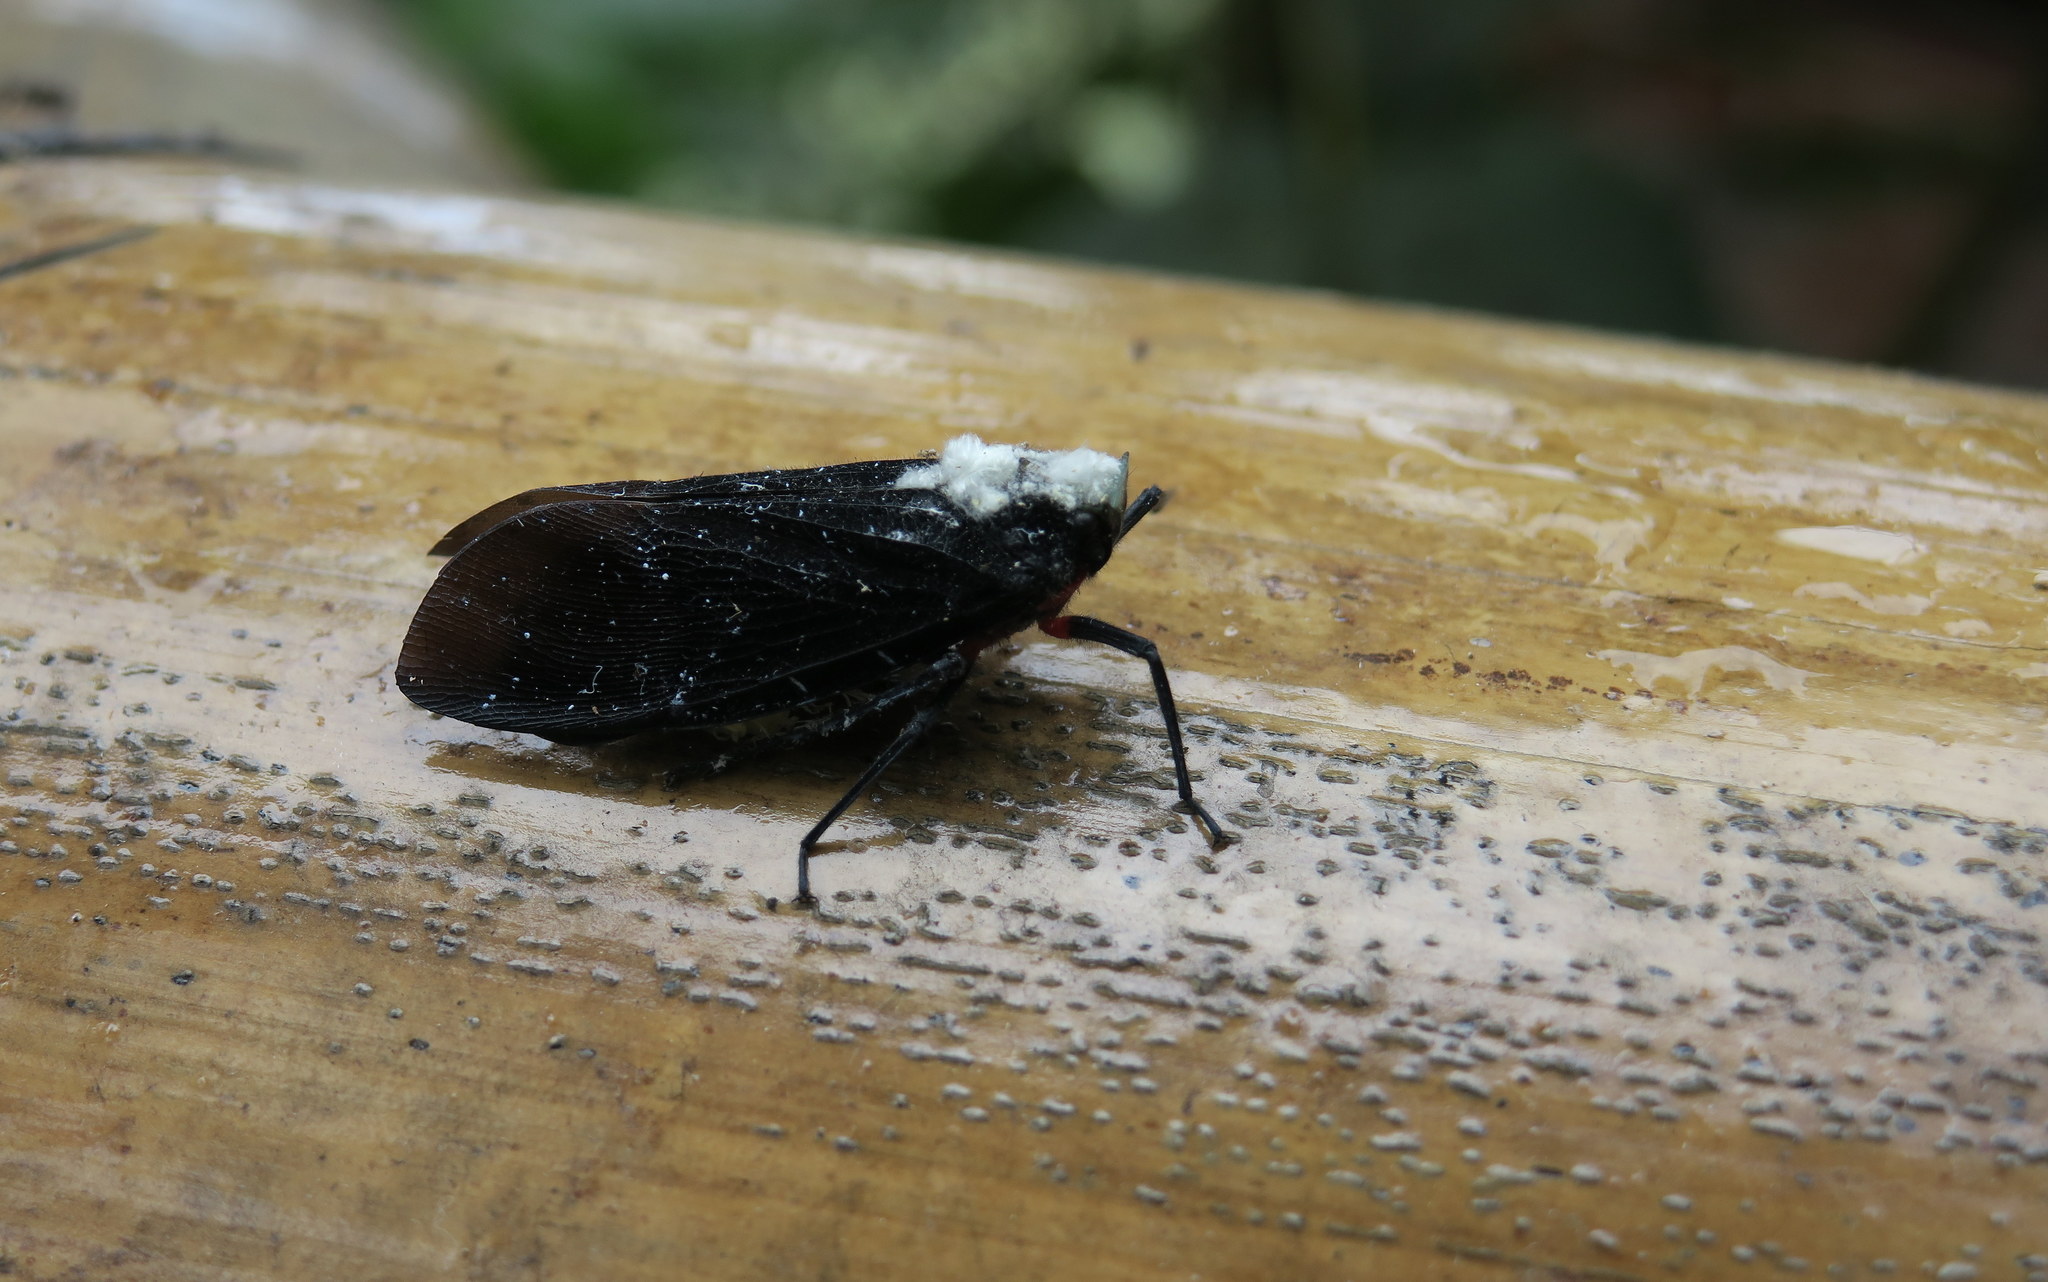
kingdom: Animalia
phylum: Arthropoda
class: Insecta
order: Hemiptera
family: Fulgoridae
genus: Menenia
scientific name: Menenia terebrifera
